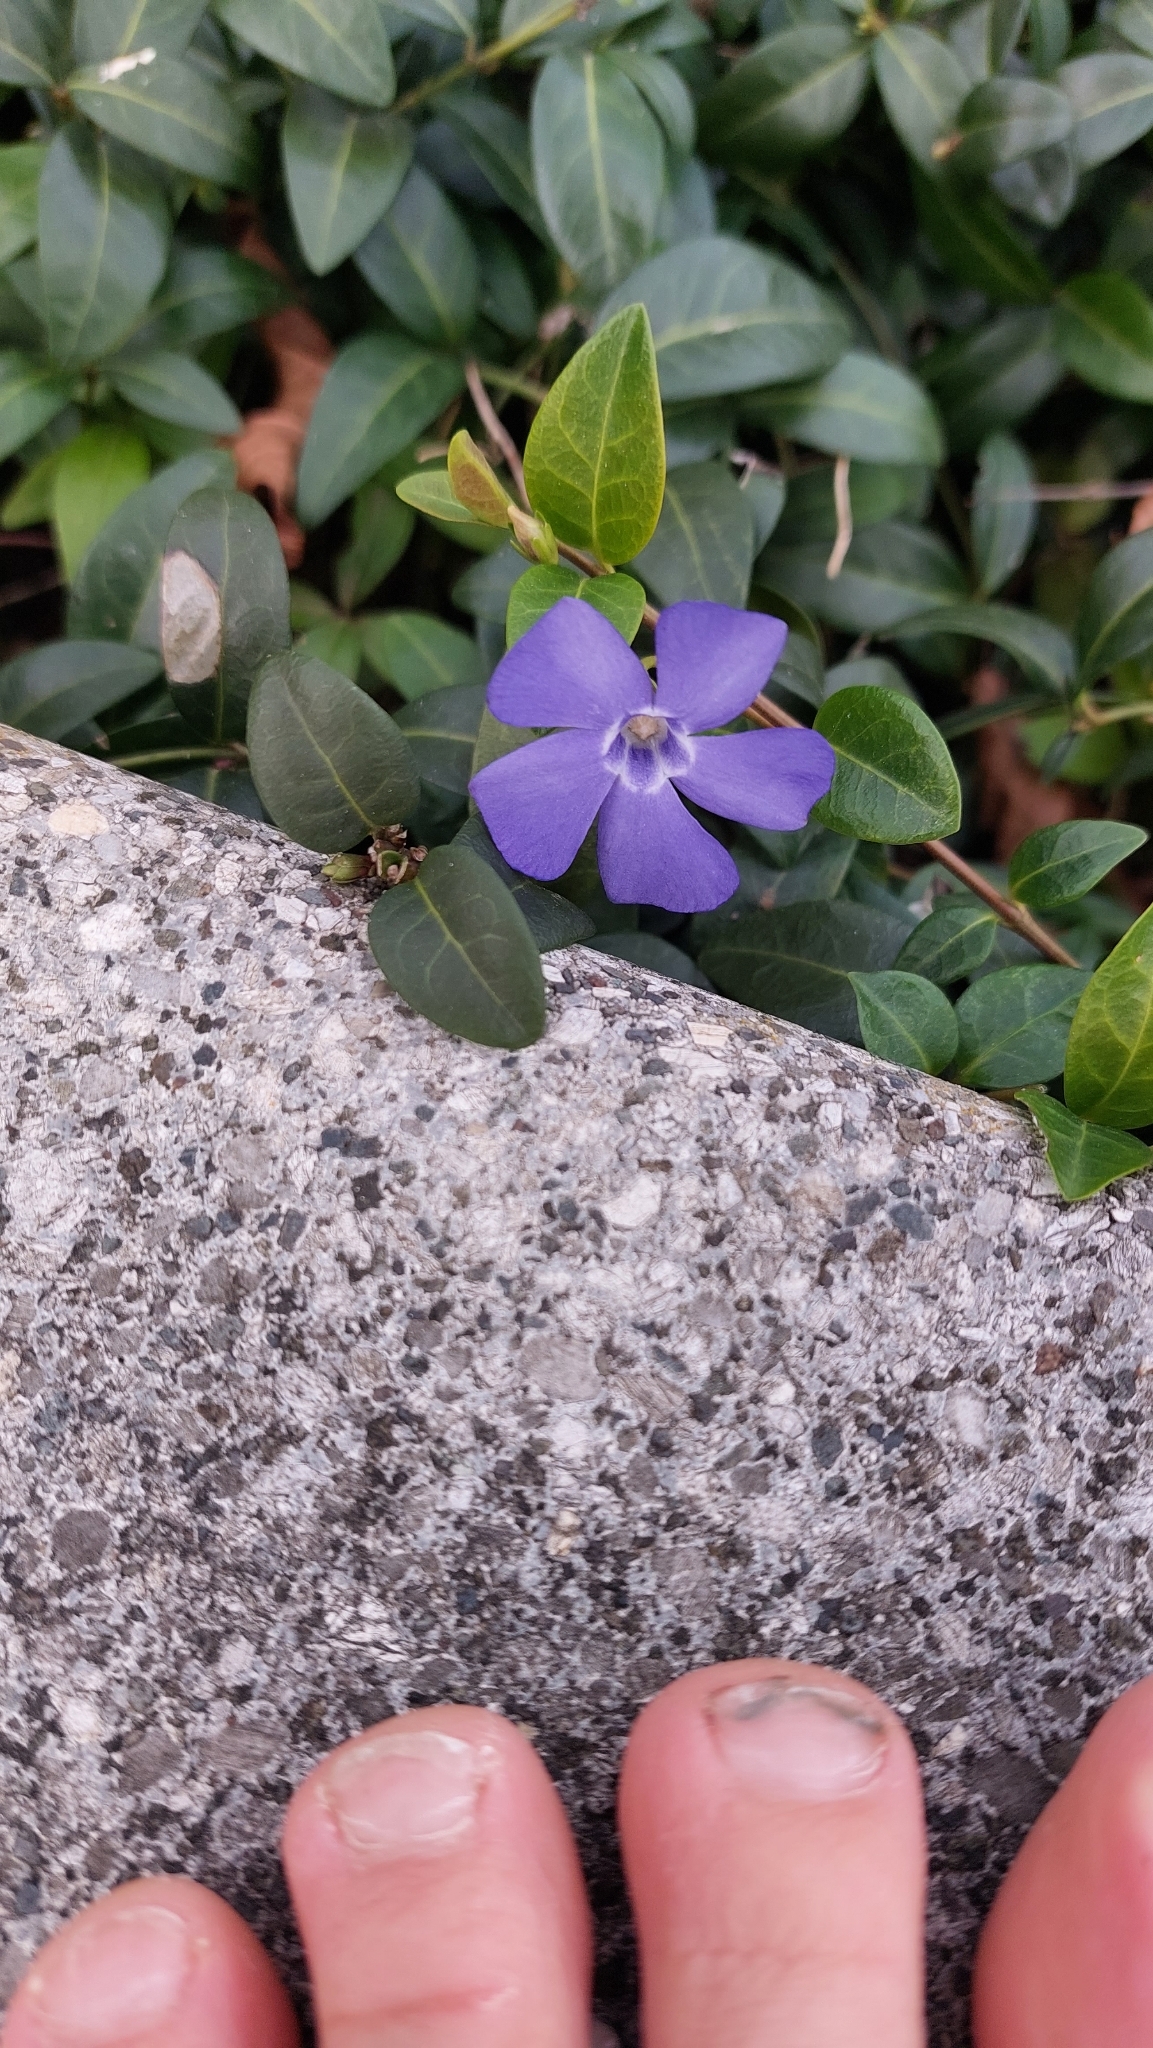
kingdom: Plantae
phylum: Tracheophyta
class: Magnoliopsida
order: Gentianales
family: Apocynaceae
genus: Vinca
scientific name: Vinca minor
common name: Lesser periwinkle
